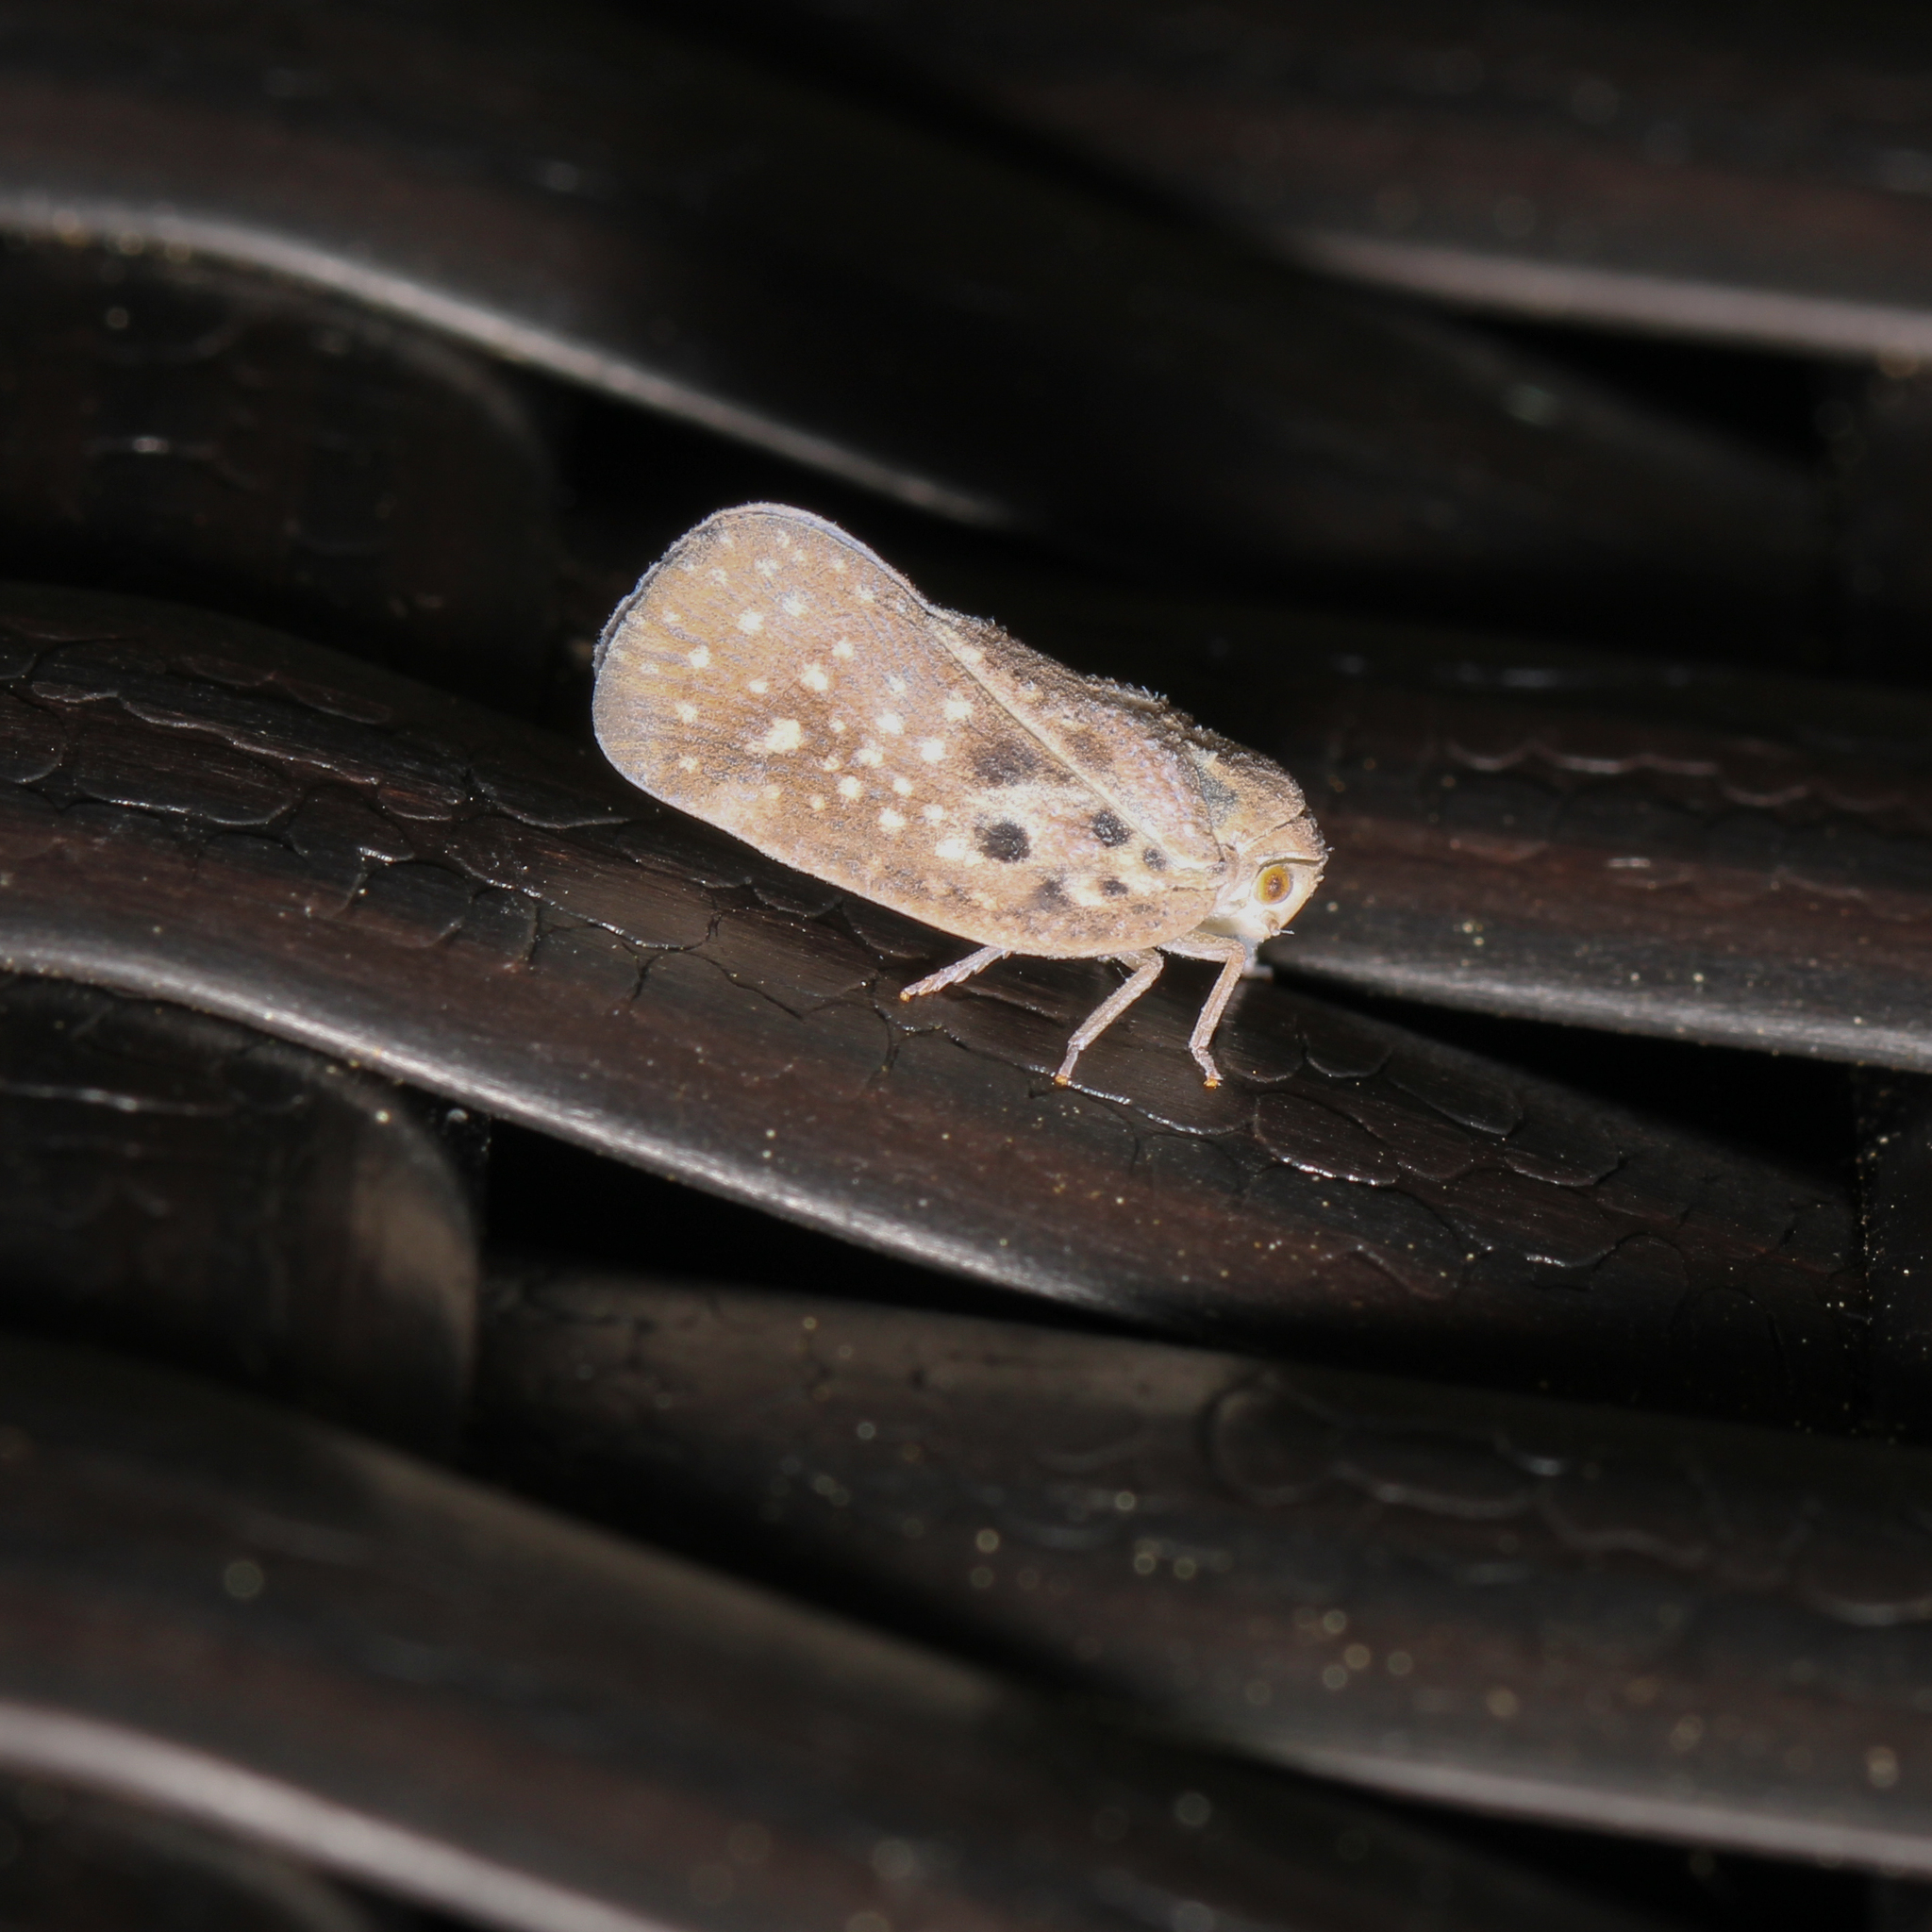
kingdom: Animalia
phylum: Arthropoda
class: Insecta
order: Hemiptera
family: Flatidae
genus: Metcalfa
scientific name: Metcalfa pruinosa
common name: Citrus flatid planthopper
